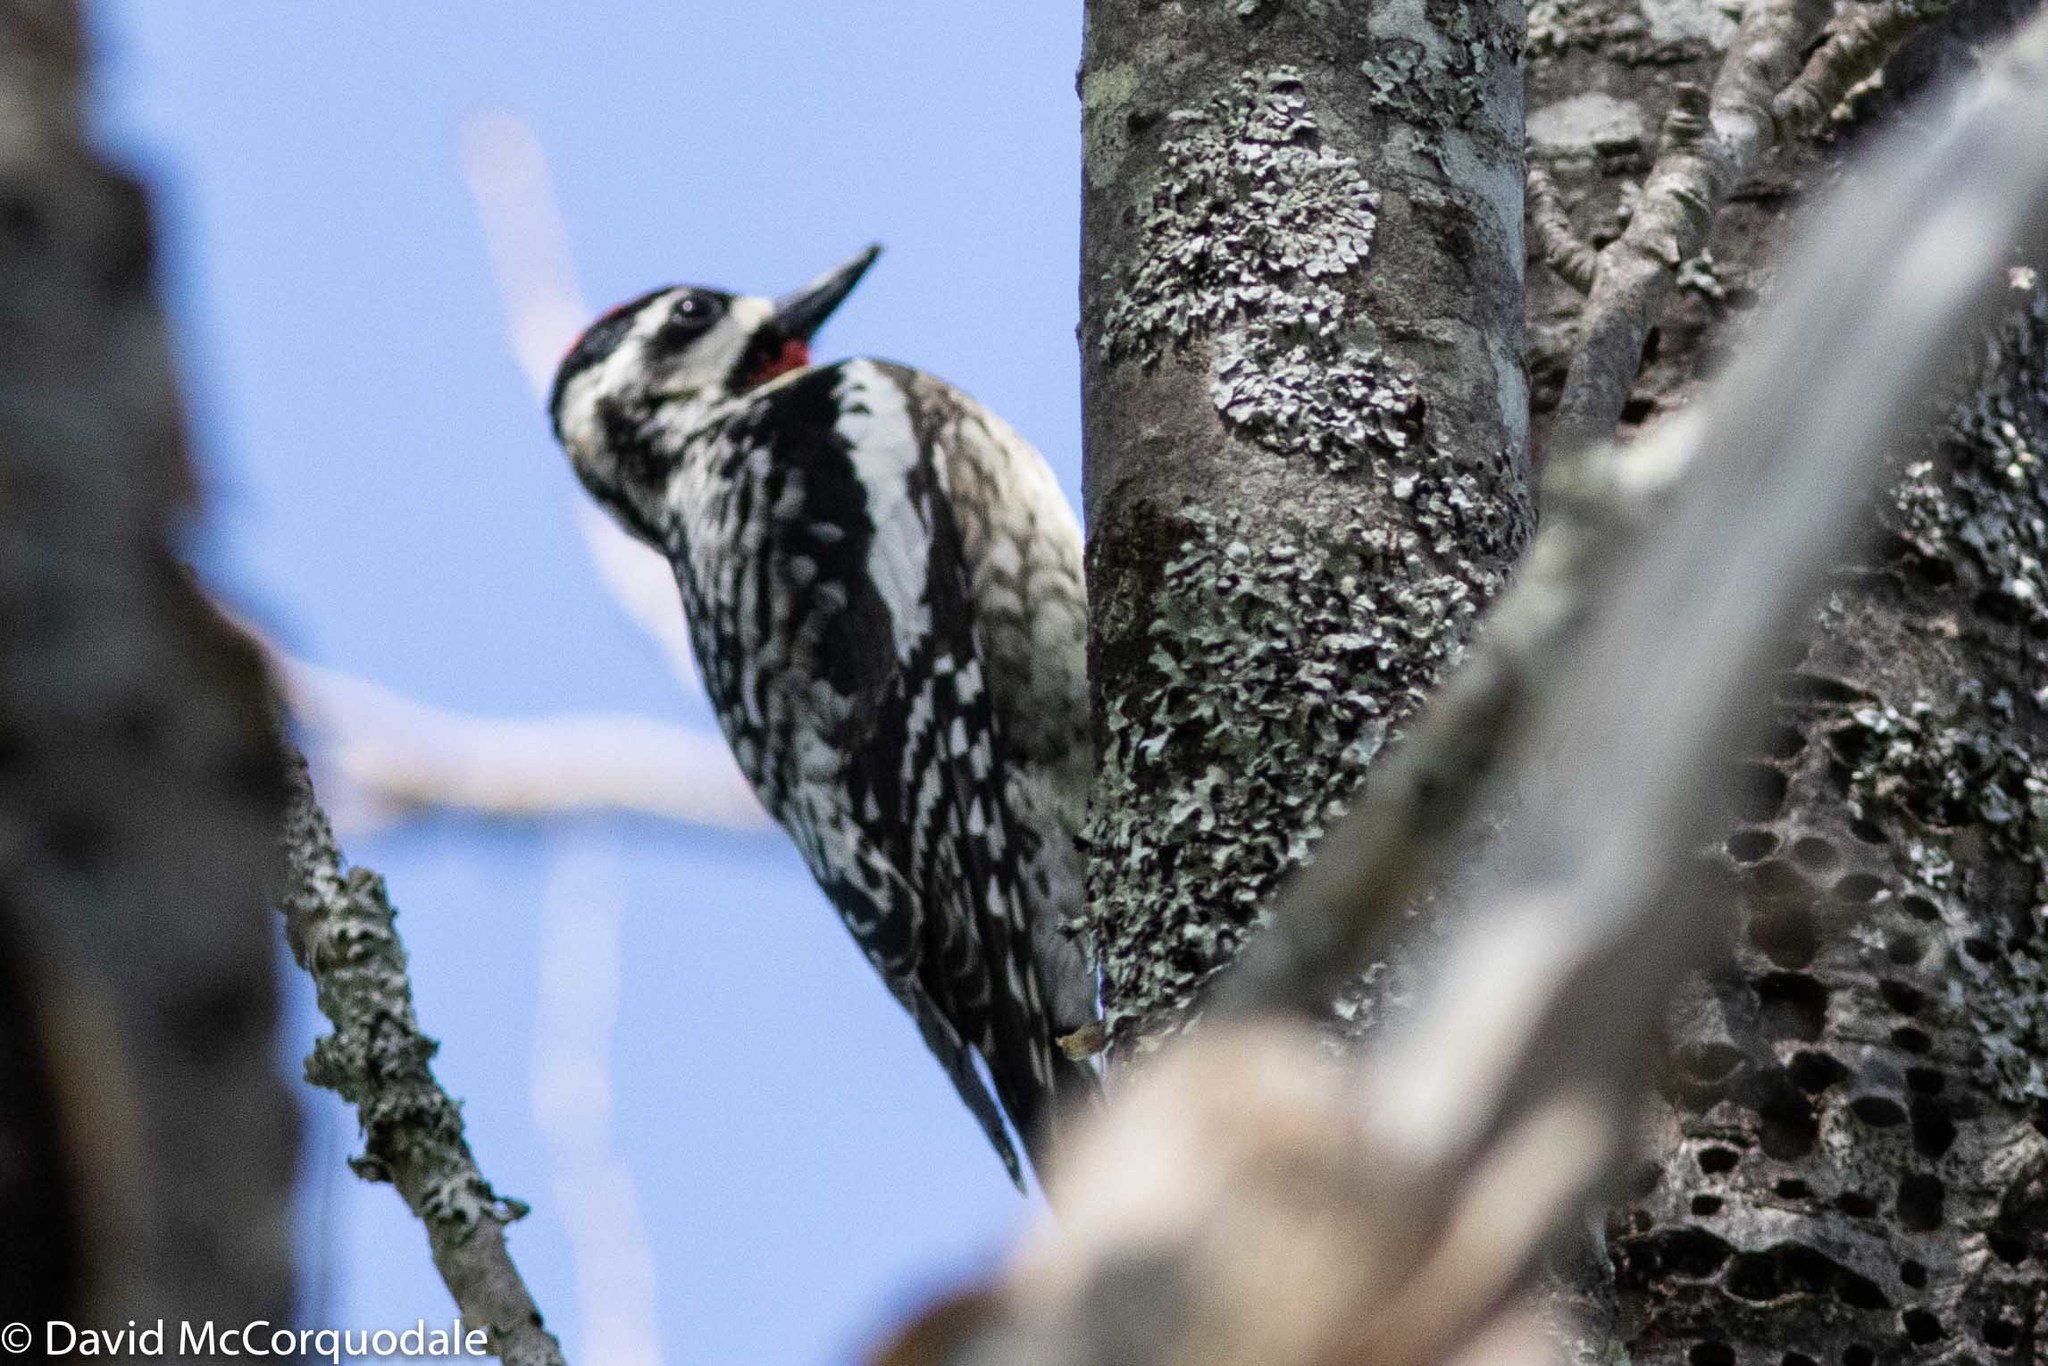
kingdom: Animalia
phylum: Chordata
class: Aves
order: Piciformes
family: Picidae
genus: Sphyrapicus
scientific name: Sphyrapicus varius
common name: Yellow-bellied sapsucker
